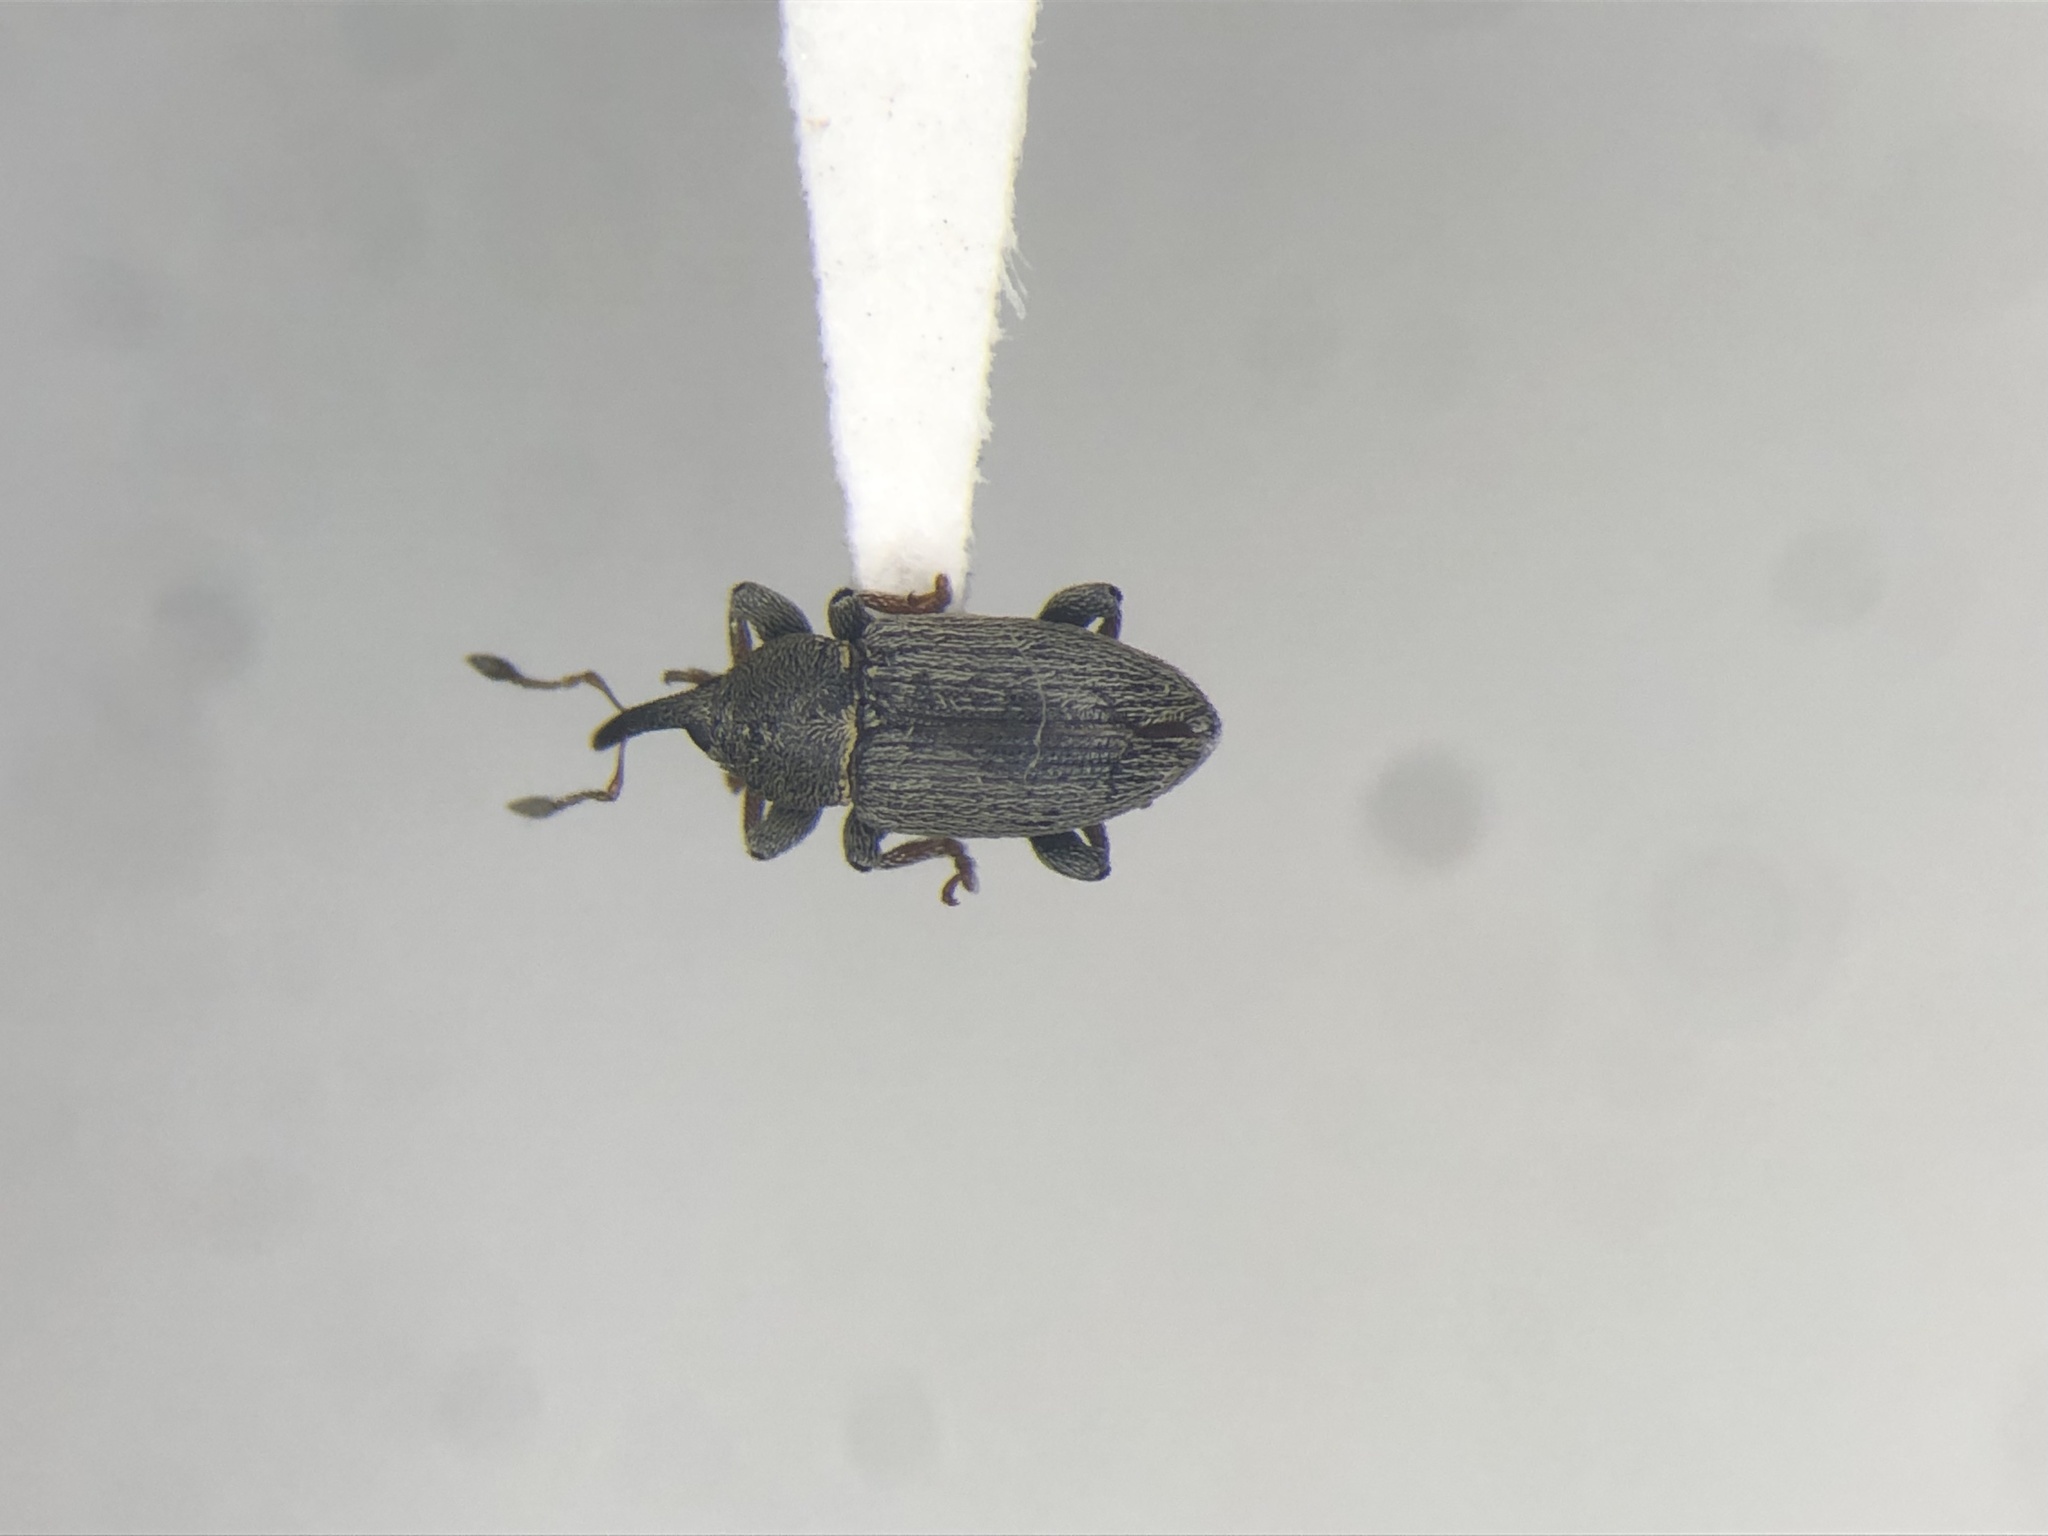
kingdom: Animalia
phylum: Arthropoda
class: Insecta
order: Coleoptera
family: Curculionidae
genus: Tychius
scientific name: Tychius picirostris
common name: Clover seed weevil
